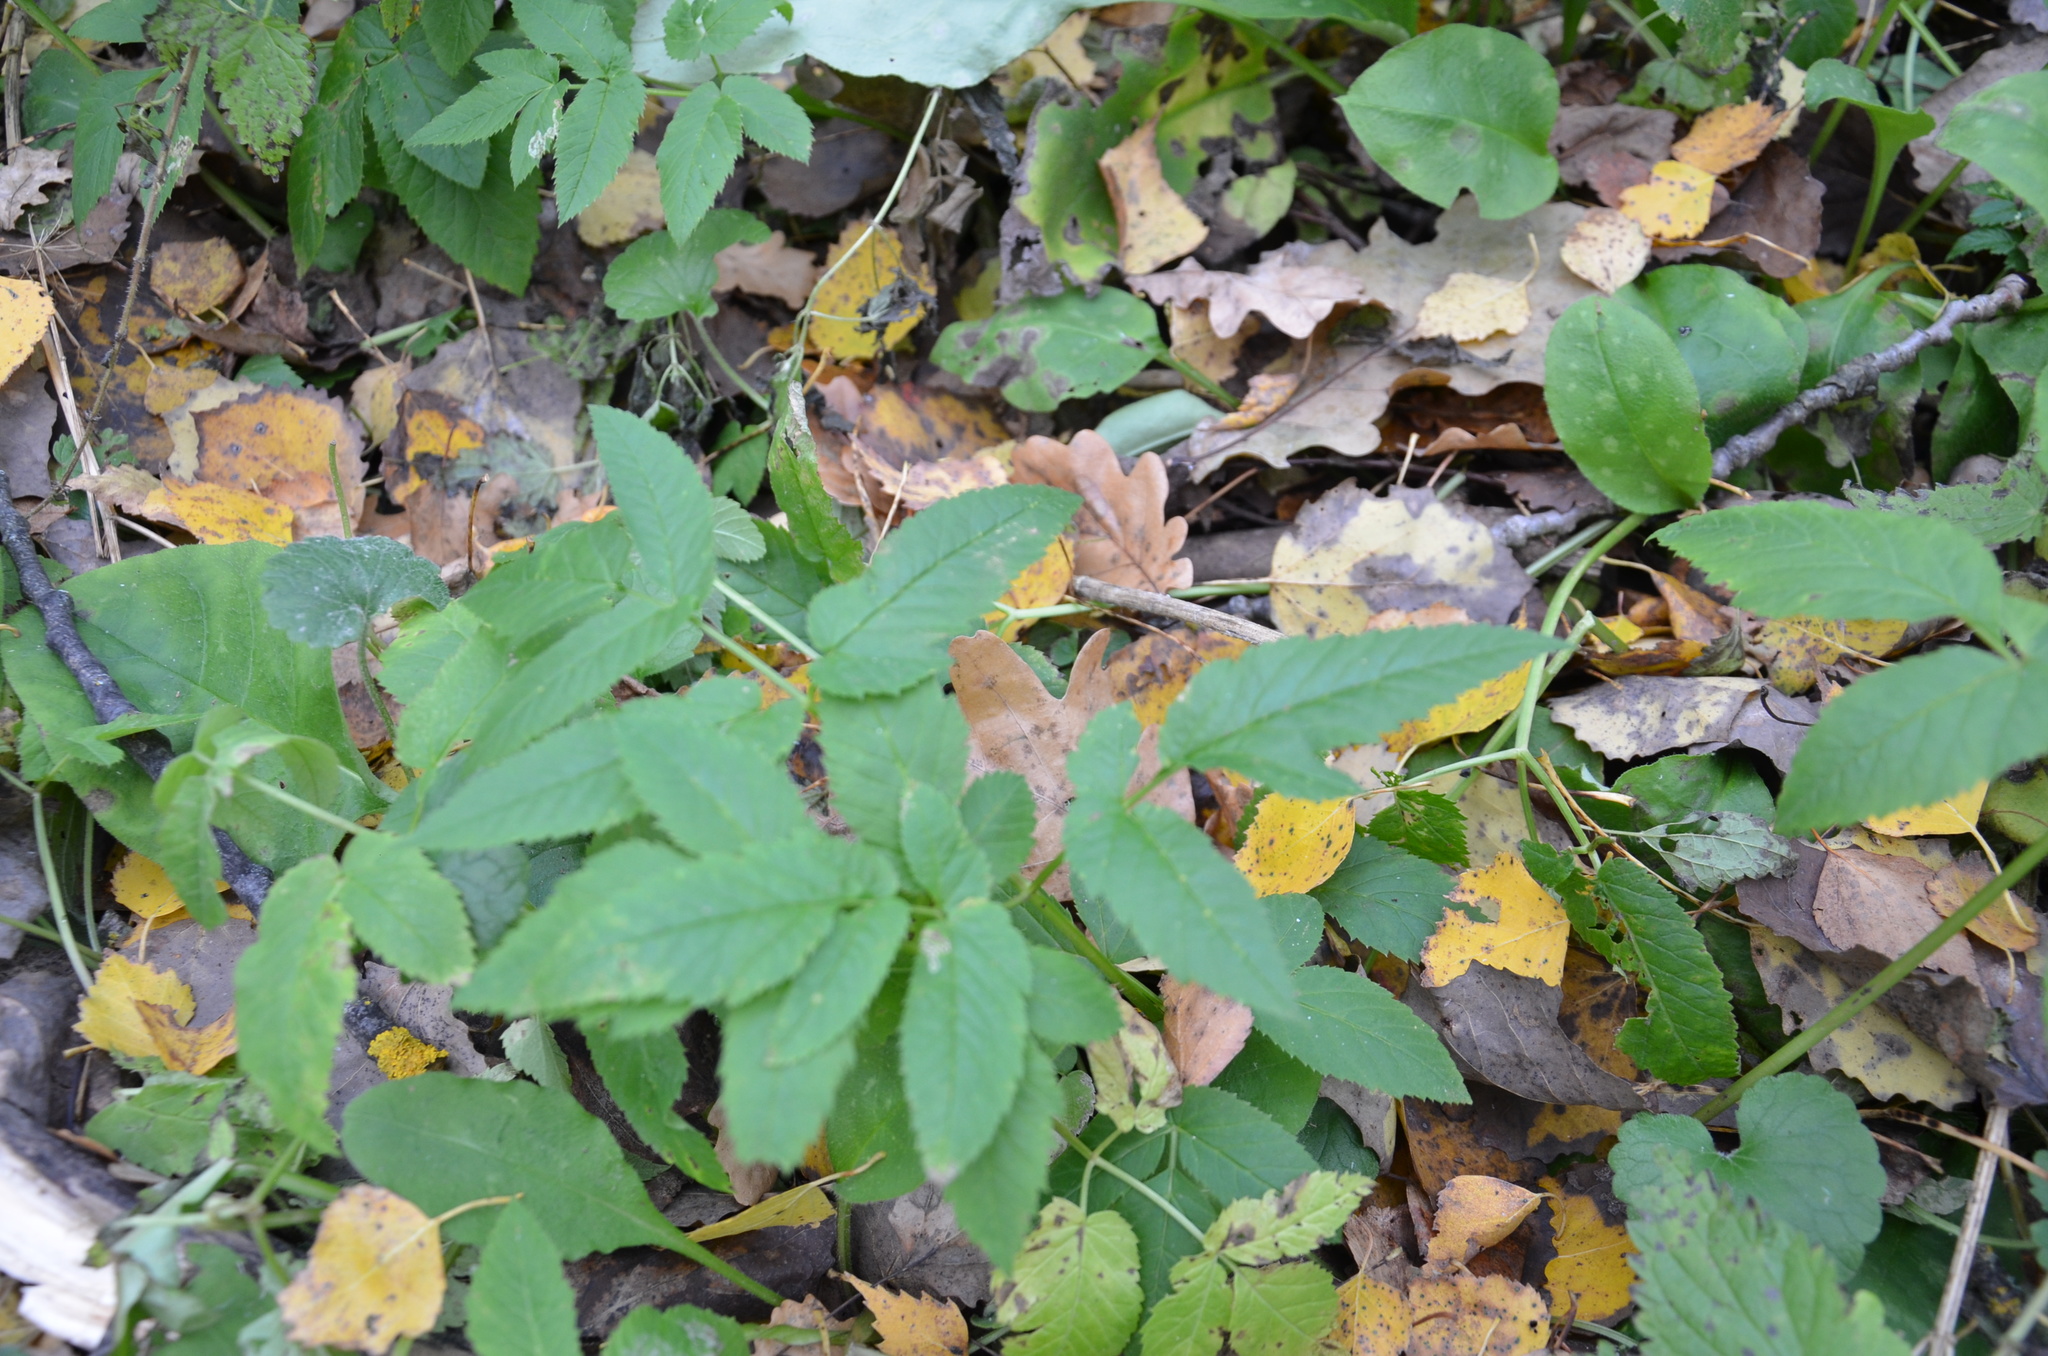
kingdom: Plantae
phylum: Tracheophyta
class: Magnoliopsida
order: Apiales
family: Apiaceae
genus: Aegopodium
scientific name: Aegopodium podagraria
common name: Ground-elder
